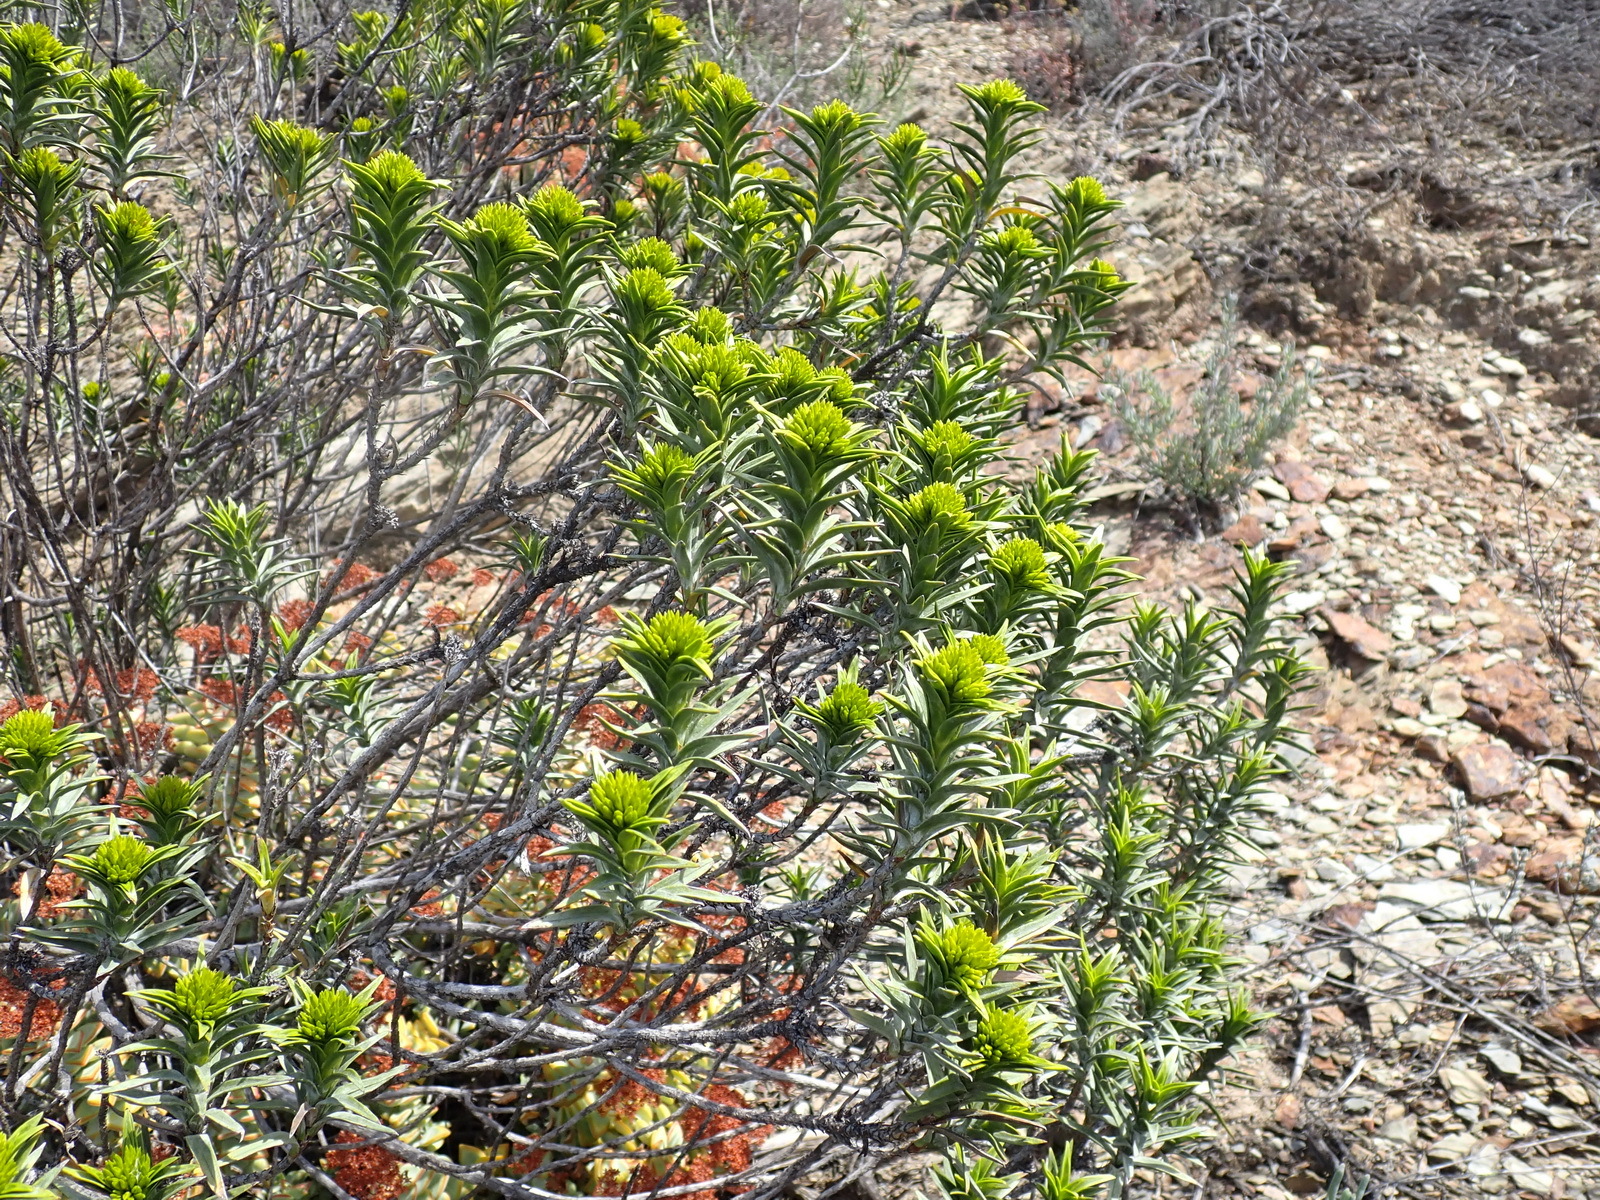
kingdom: Plantae
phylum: Tracheophyta
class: Magnoliopsida
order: Asterales
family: Asteraceae
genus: Pteronia
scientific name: Pteronia fasciculata
